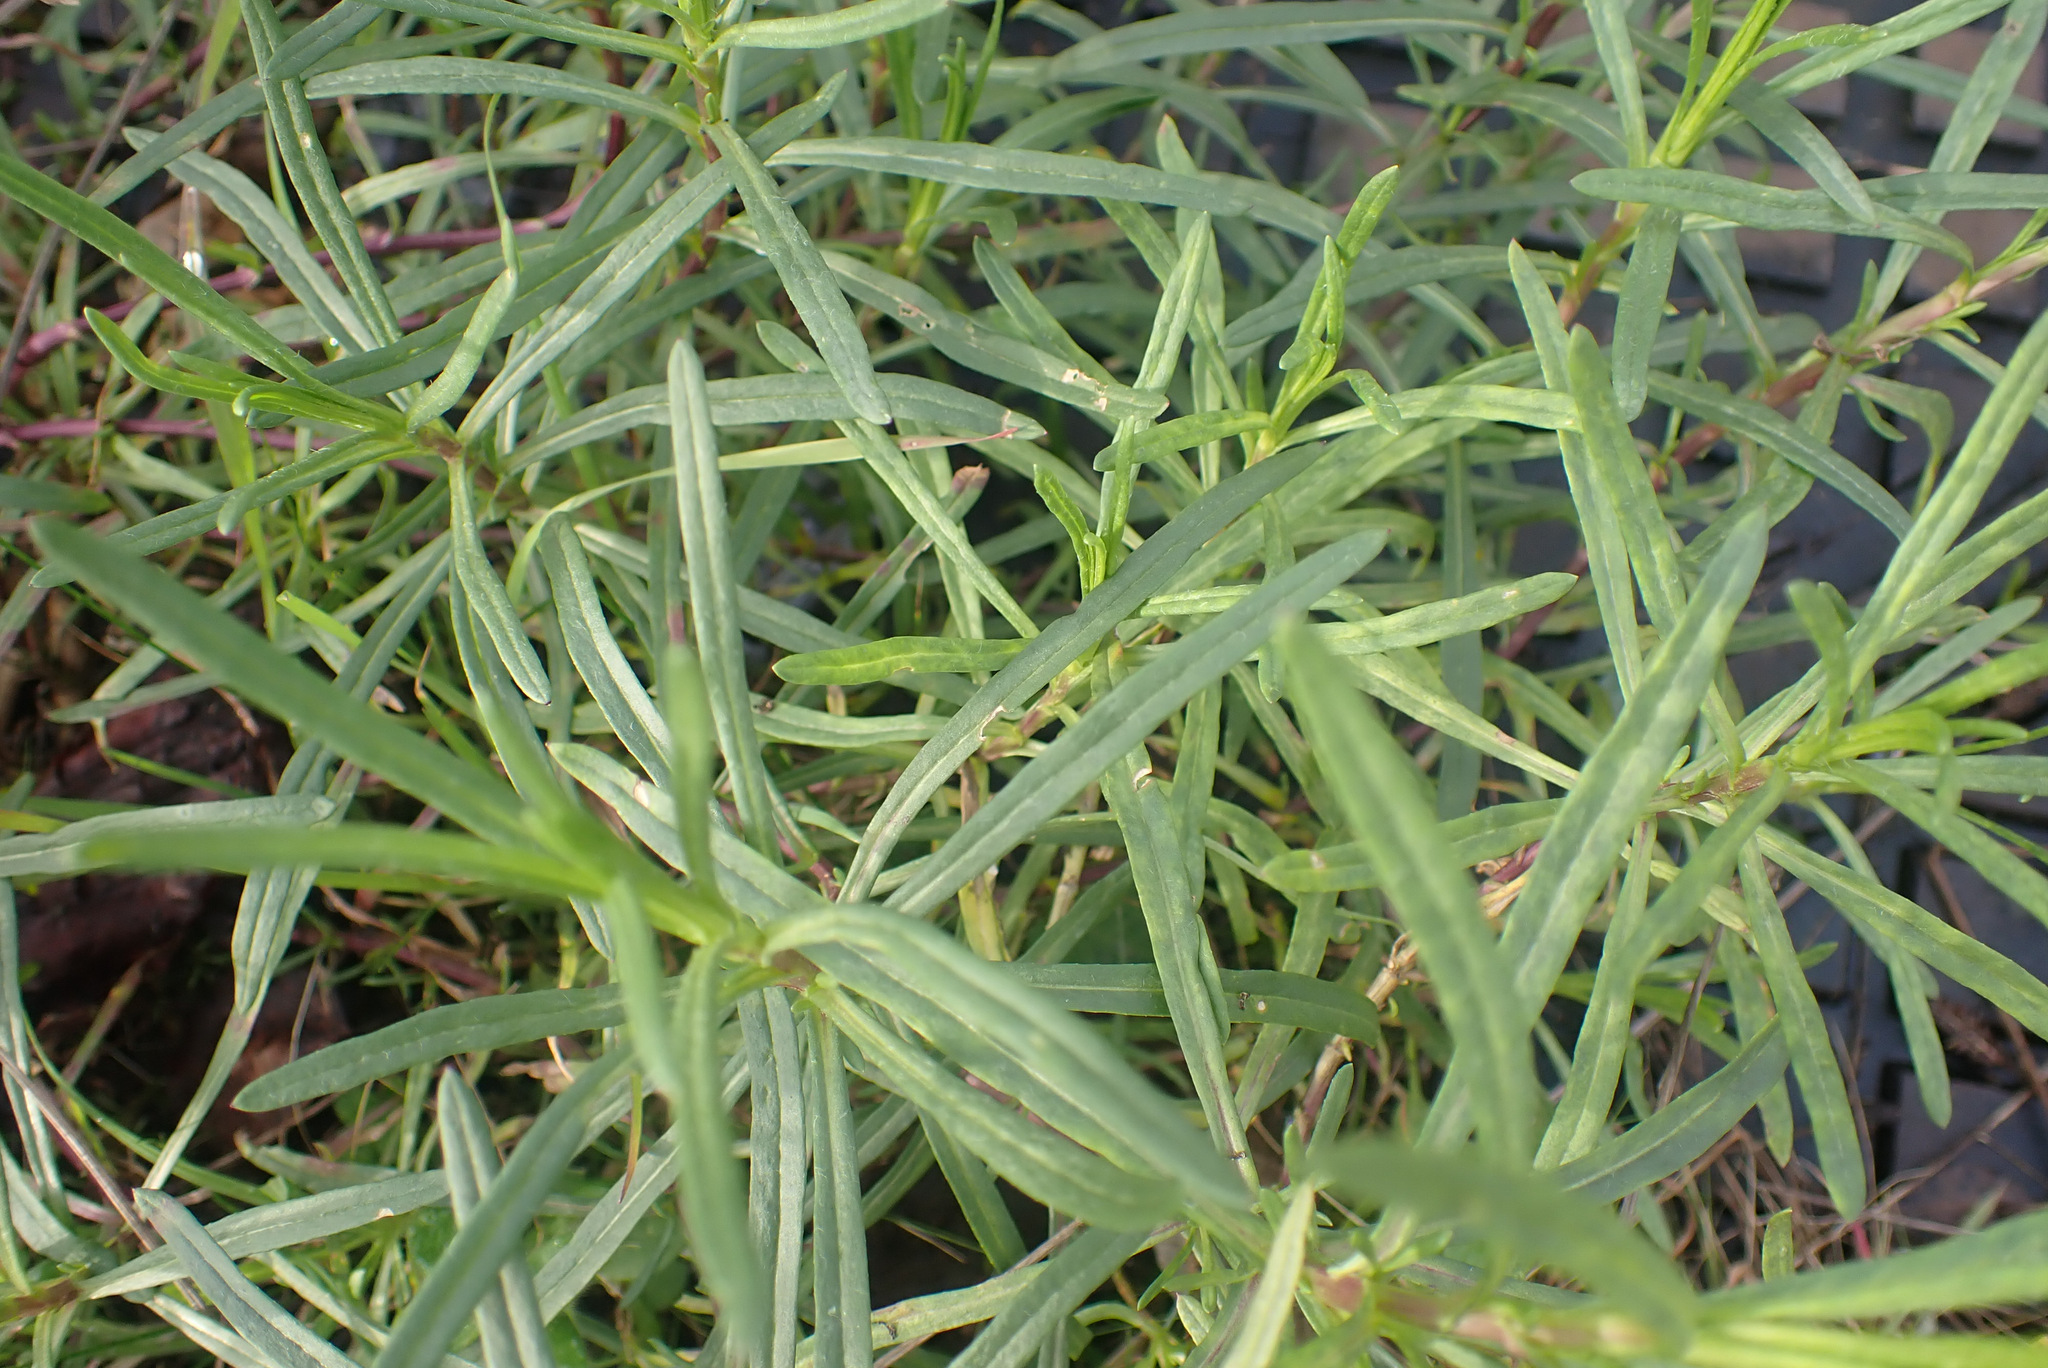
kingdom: Plantae
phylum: Tracheophyta
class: Magnoliopsida
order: Asterales
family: Asteraceae
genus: Senecio
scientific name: Senecio inaequidens
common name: Narrow-leaved ragwort
